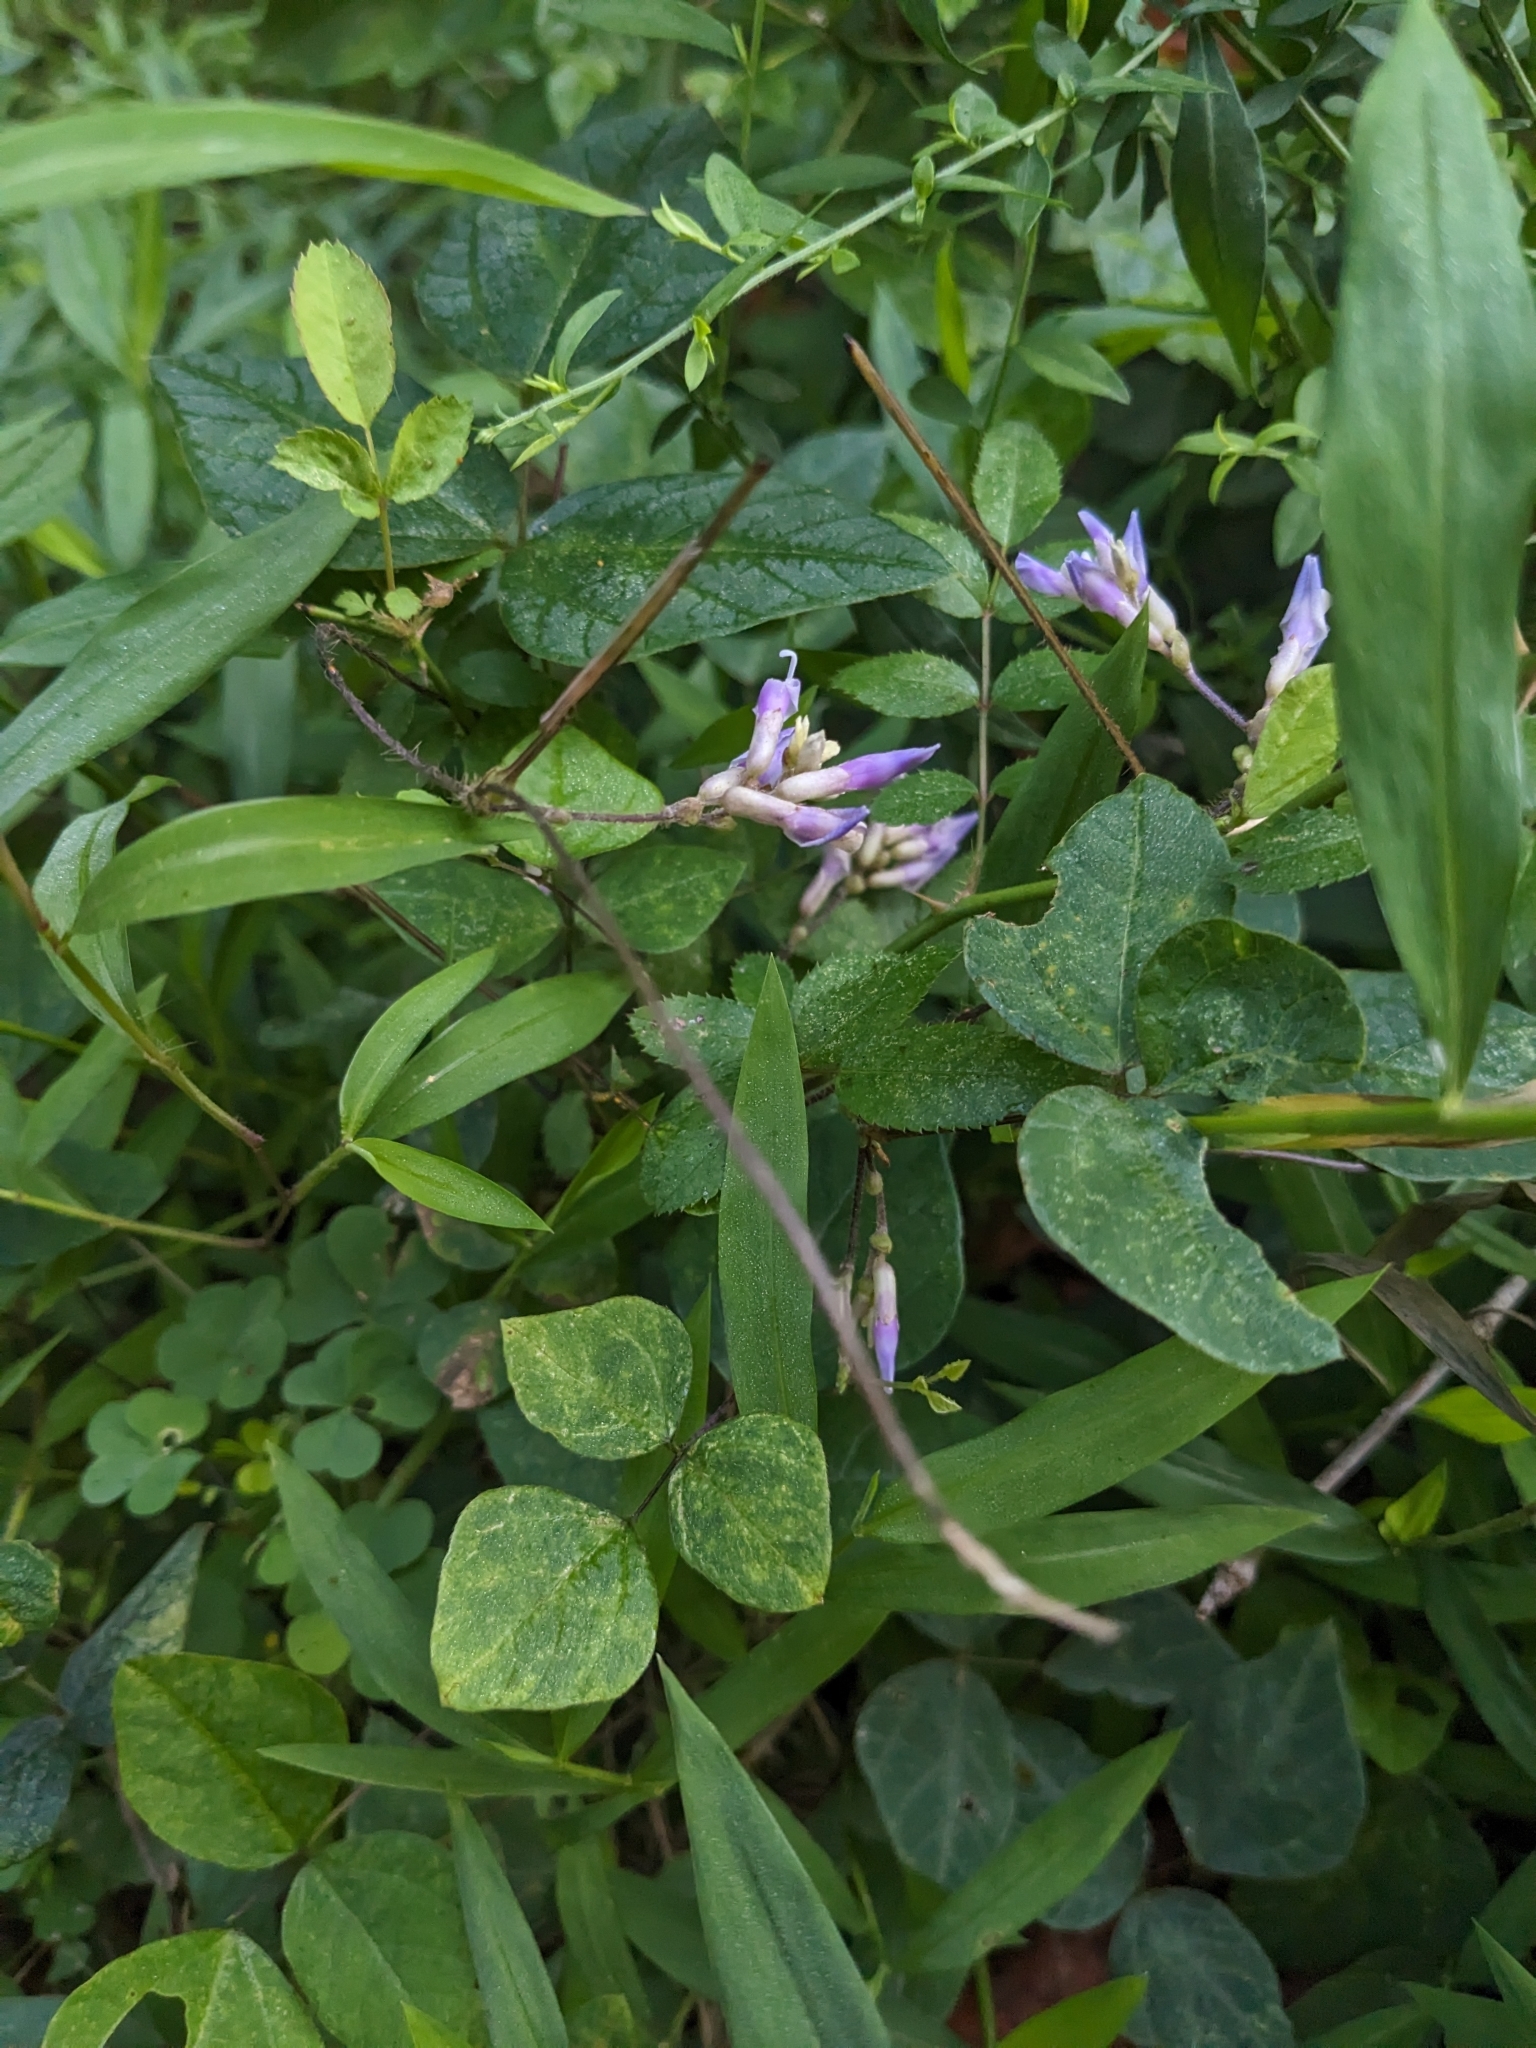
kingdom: Plantae
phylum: Tracheophyta
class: Magnoliopsida
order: Fabales
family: Fabaceae
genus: Amphicarpaea
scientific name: Amphicarpaea bracteata
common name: American hog peanut
